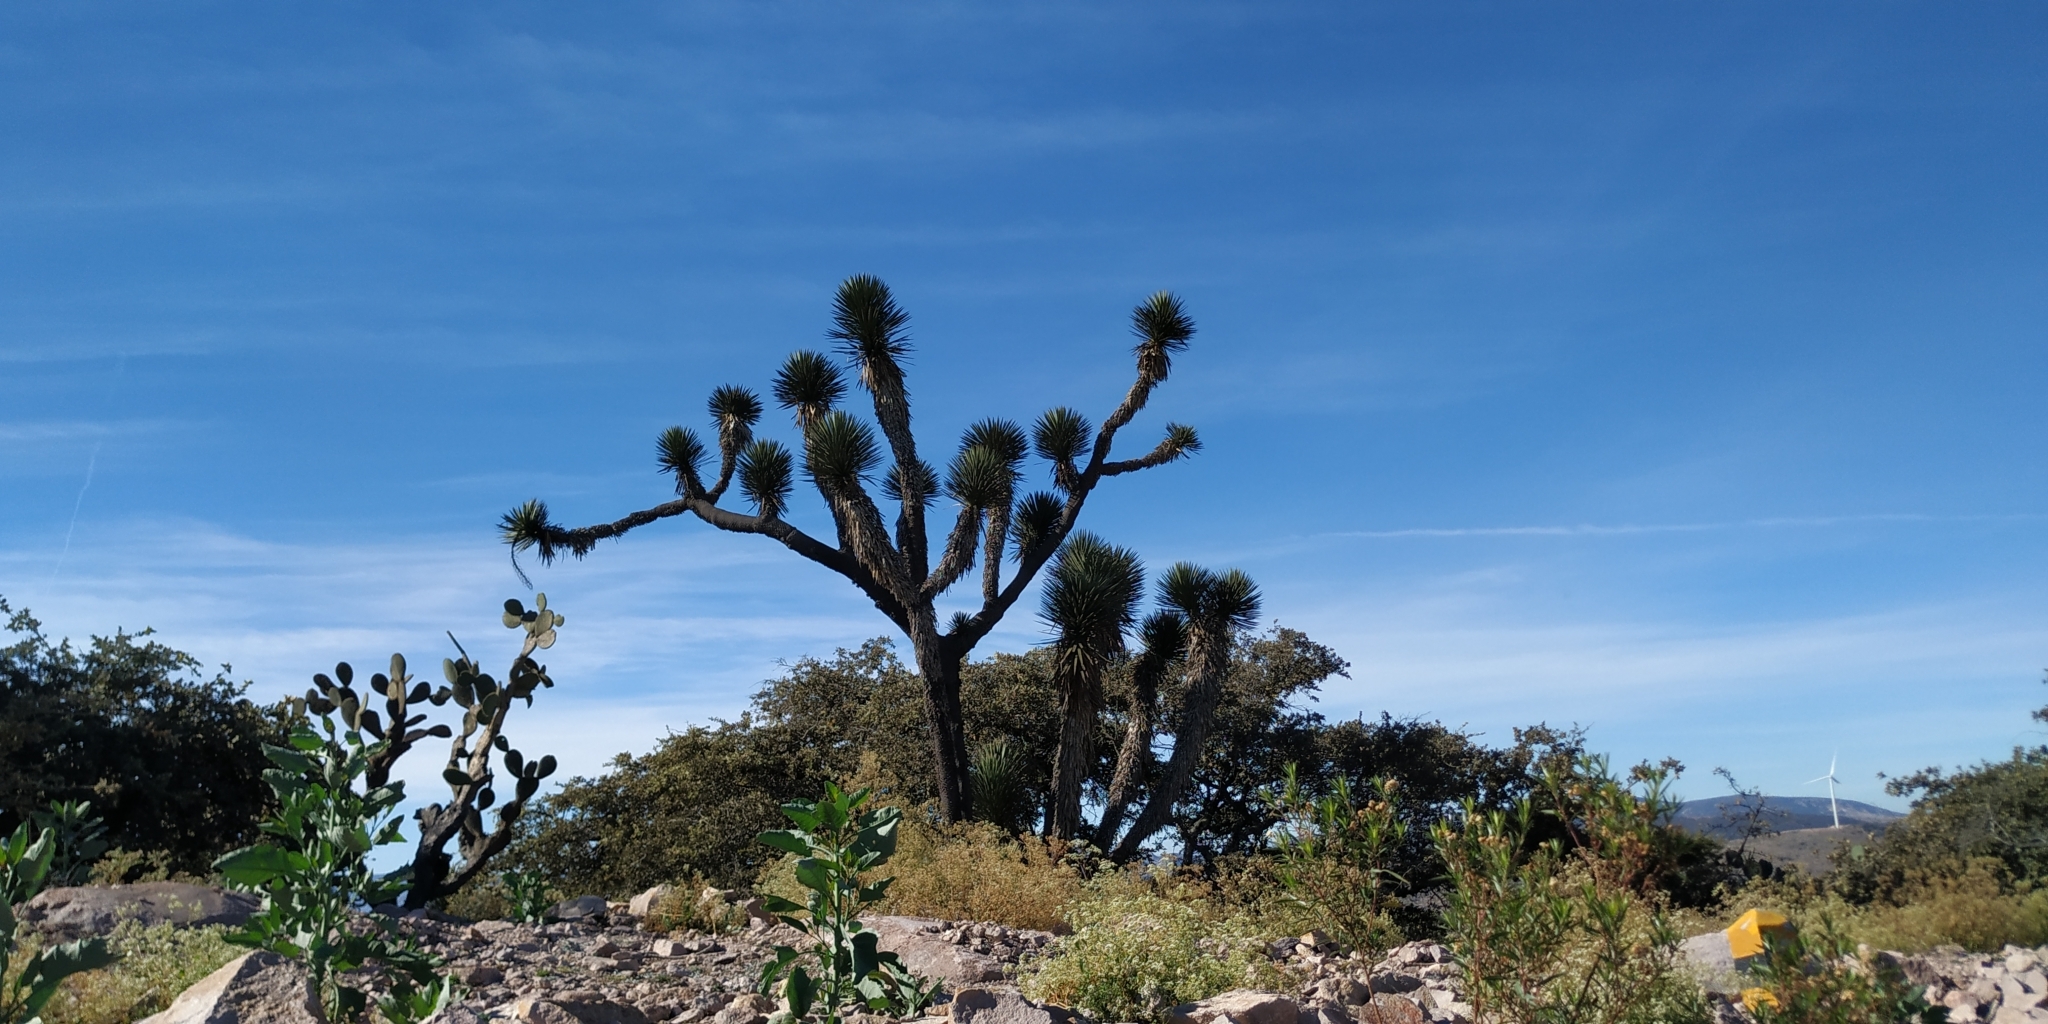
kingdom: Plantae
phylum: Tracheophyta
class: Liliopsida
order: Asparagales
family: Asparagaceae
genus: Yucca
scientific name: Yucca filifera
